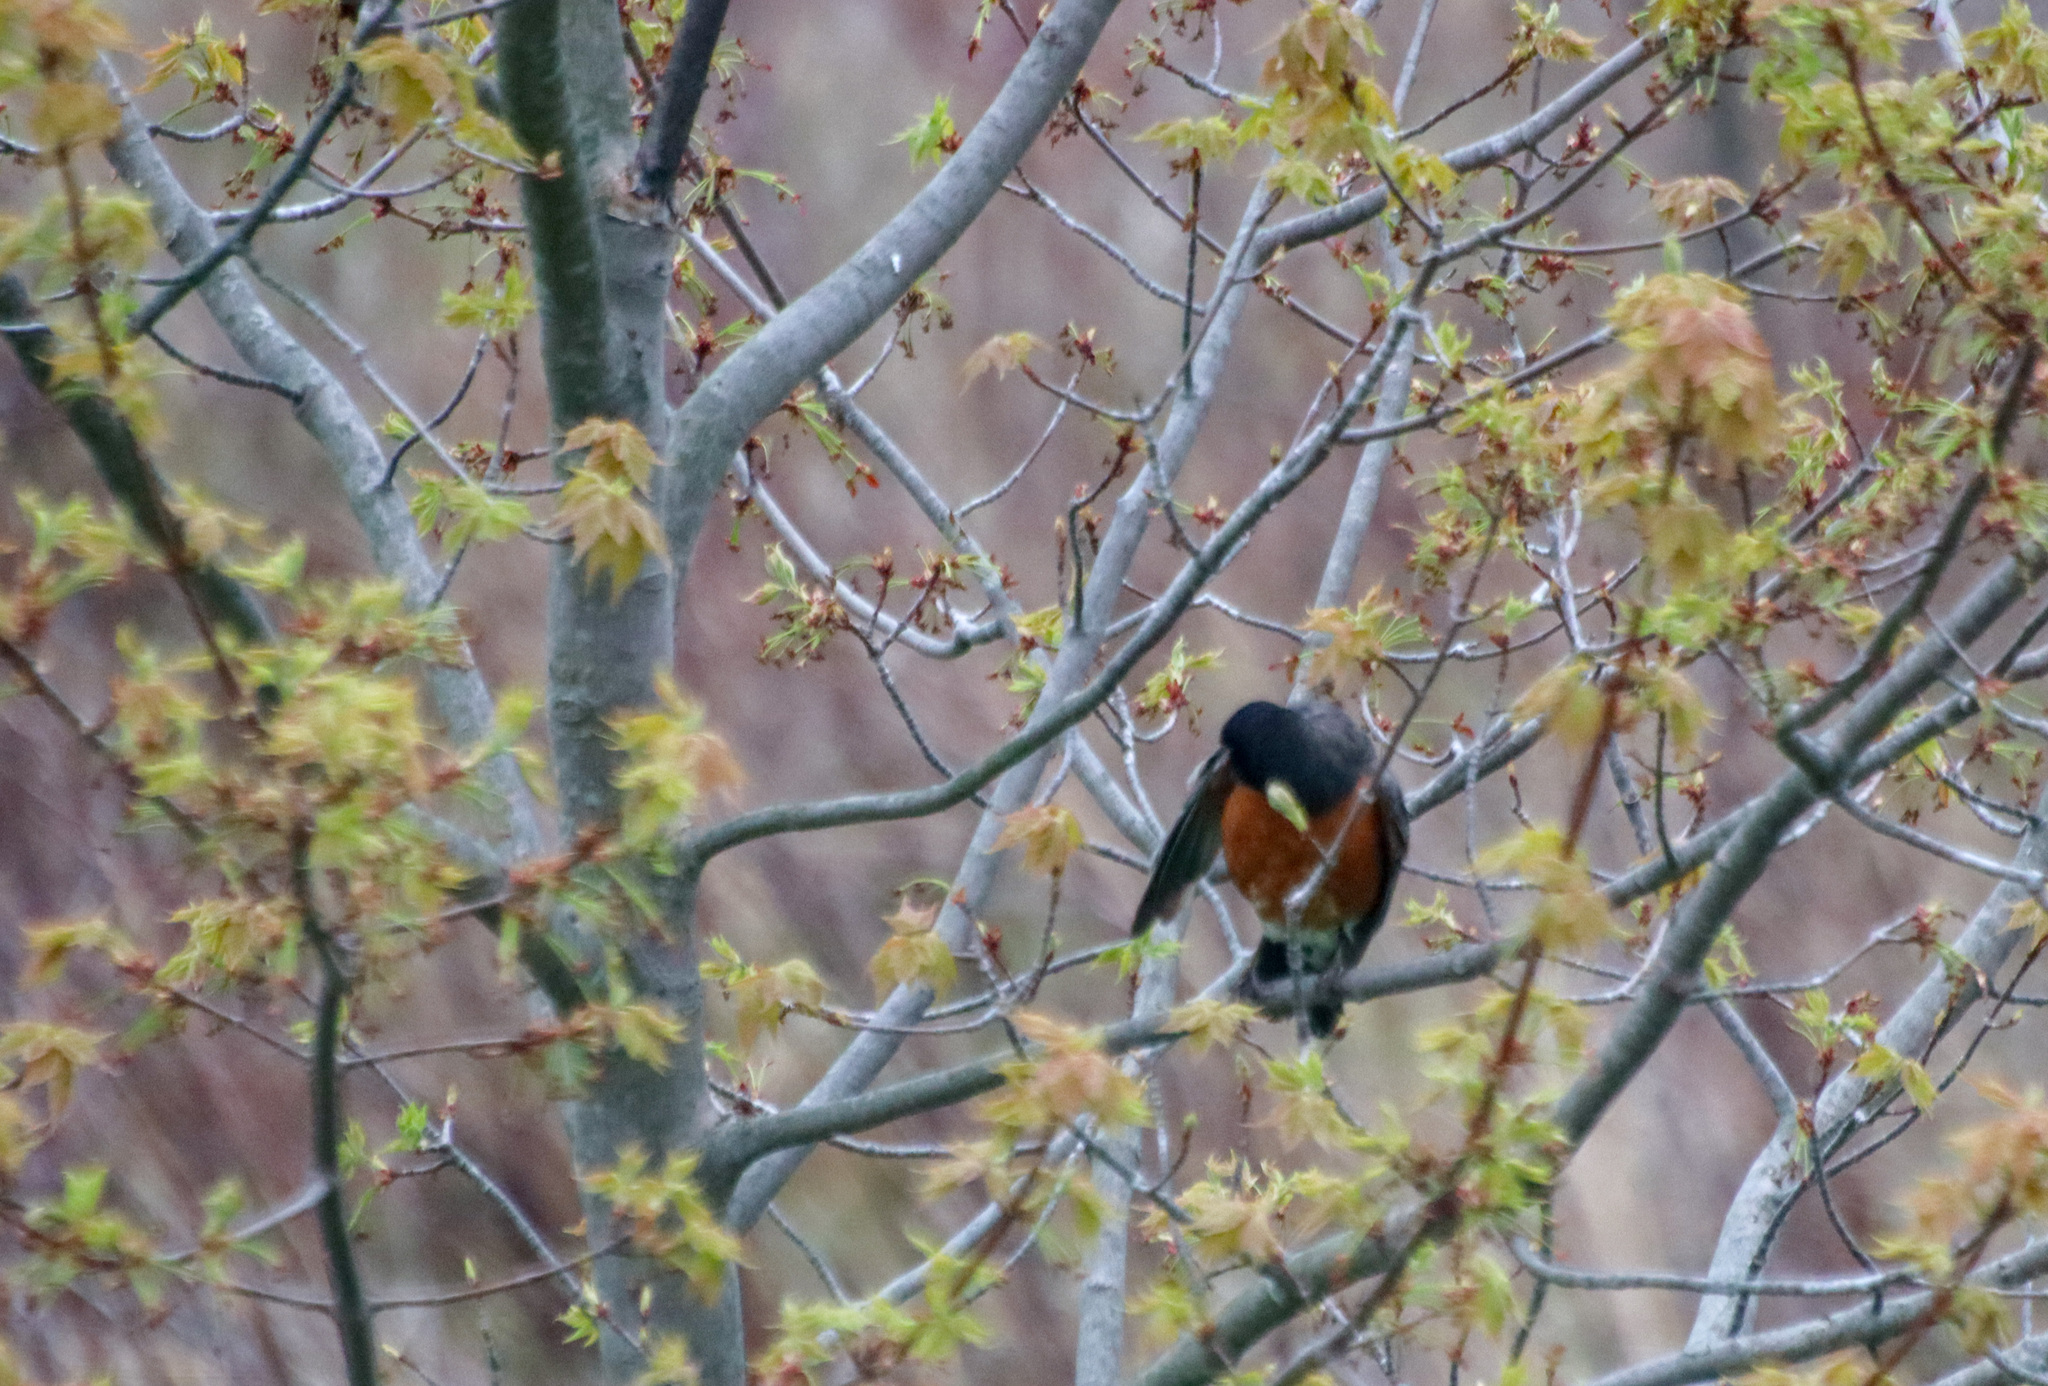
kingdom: Animalia
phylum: Chordata
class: Aves
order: Passeriformes
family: Turdidae
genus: Turdus
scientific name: Turdus migratorius
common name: American robin
